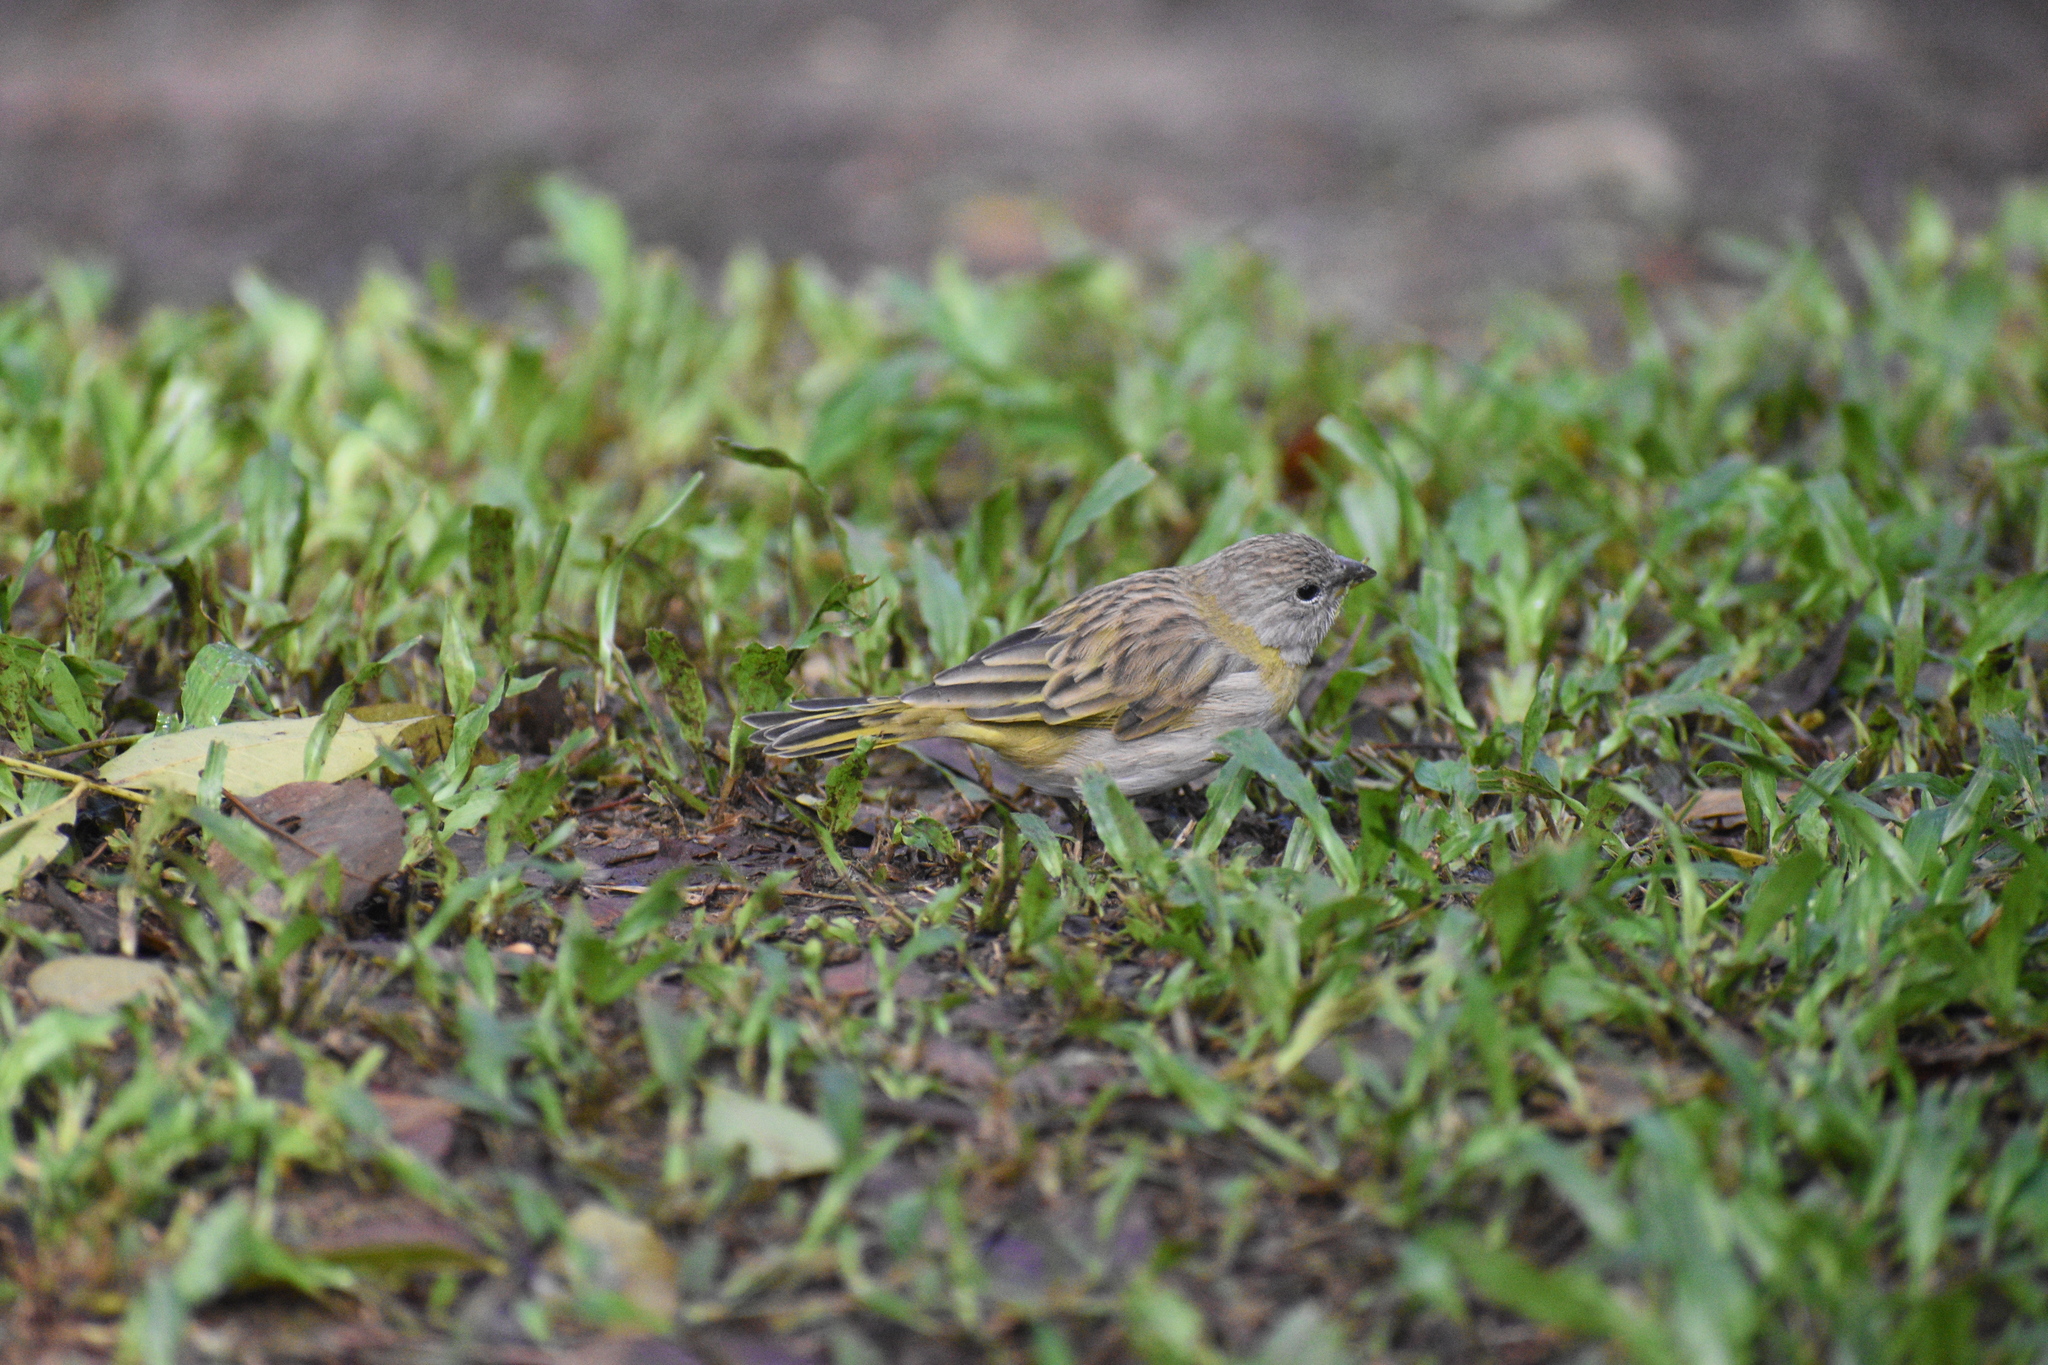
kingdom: Animalia
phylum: Chordata
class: Aves
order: Passeriformes
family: Thraupidae
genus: Sicalis
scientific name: Sicalis flaveola
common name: Saffron finch
